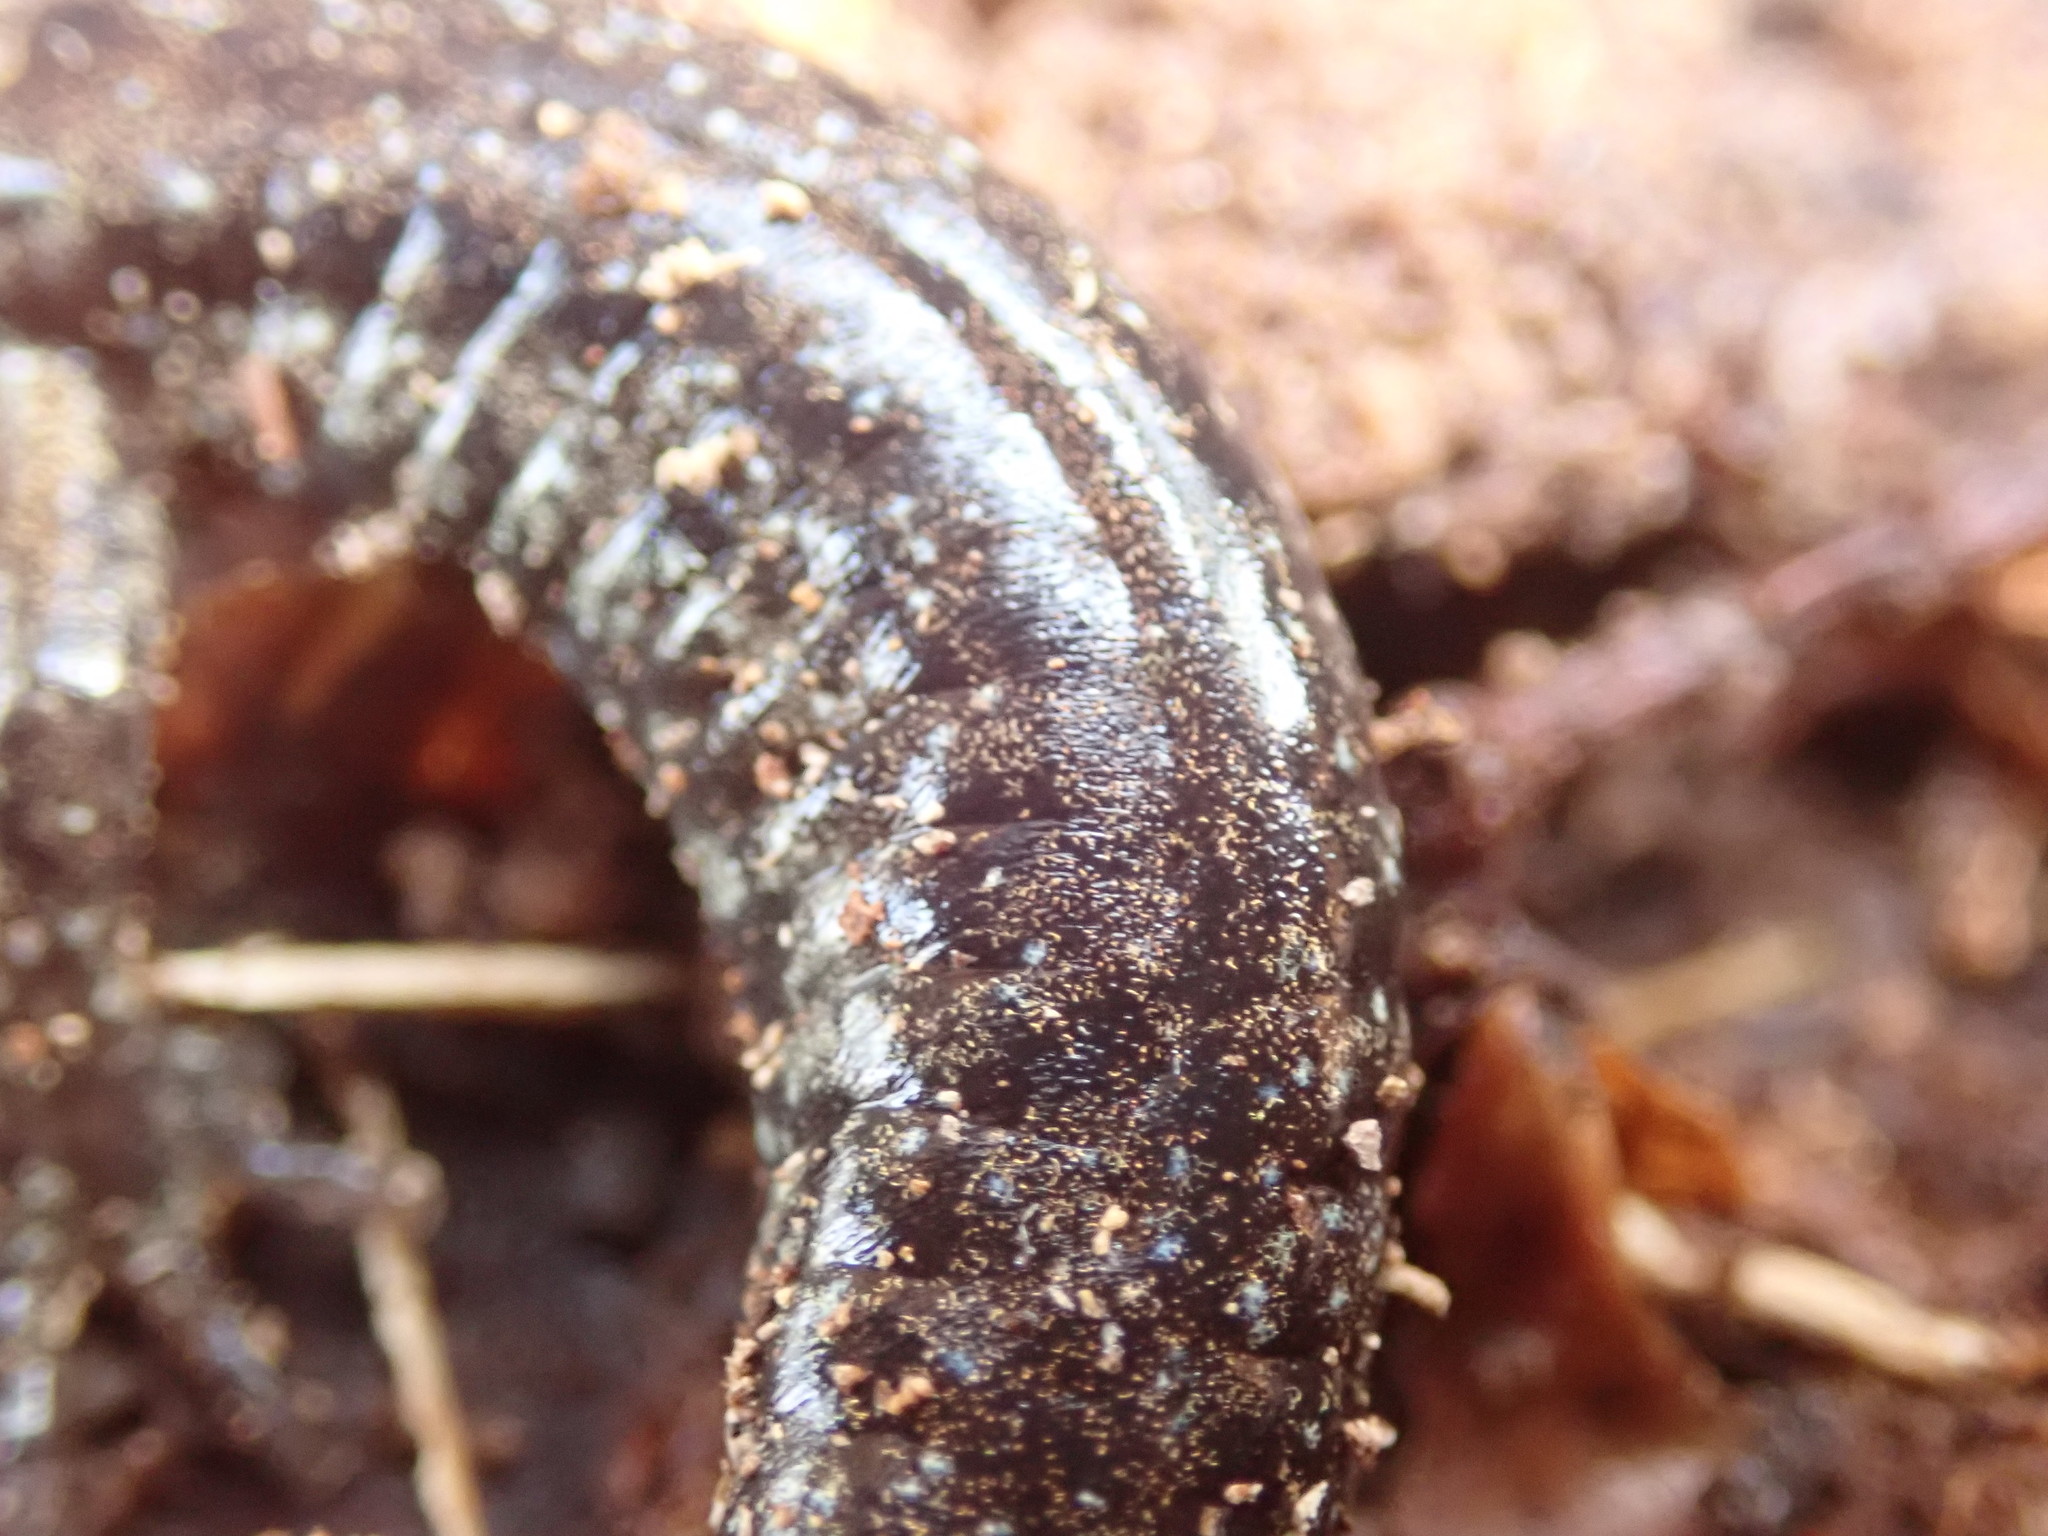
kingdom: Animalia
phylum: Chordata
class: Amphibia
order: Caudata
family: Plethodontidae
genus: Aneides
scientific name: Aneides vagrans
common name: Wandering salamander
